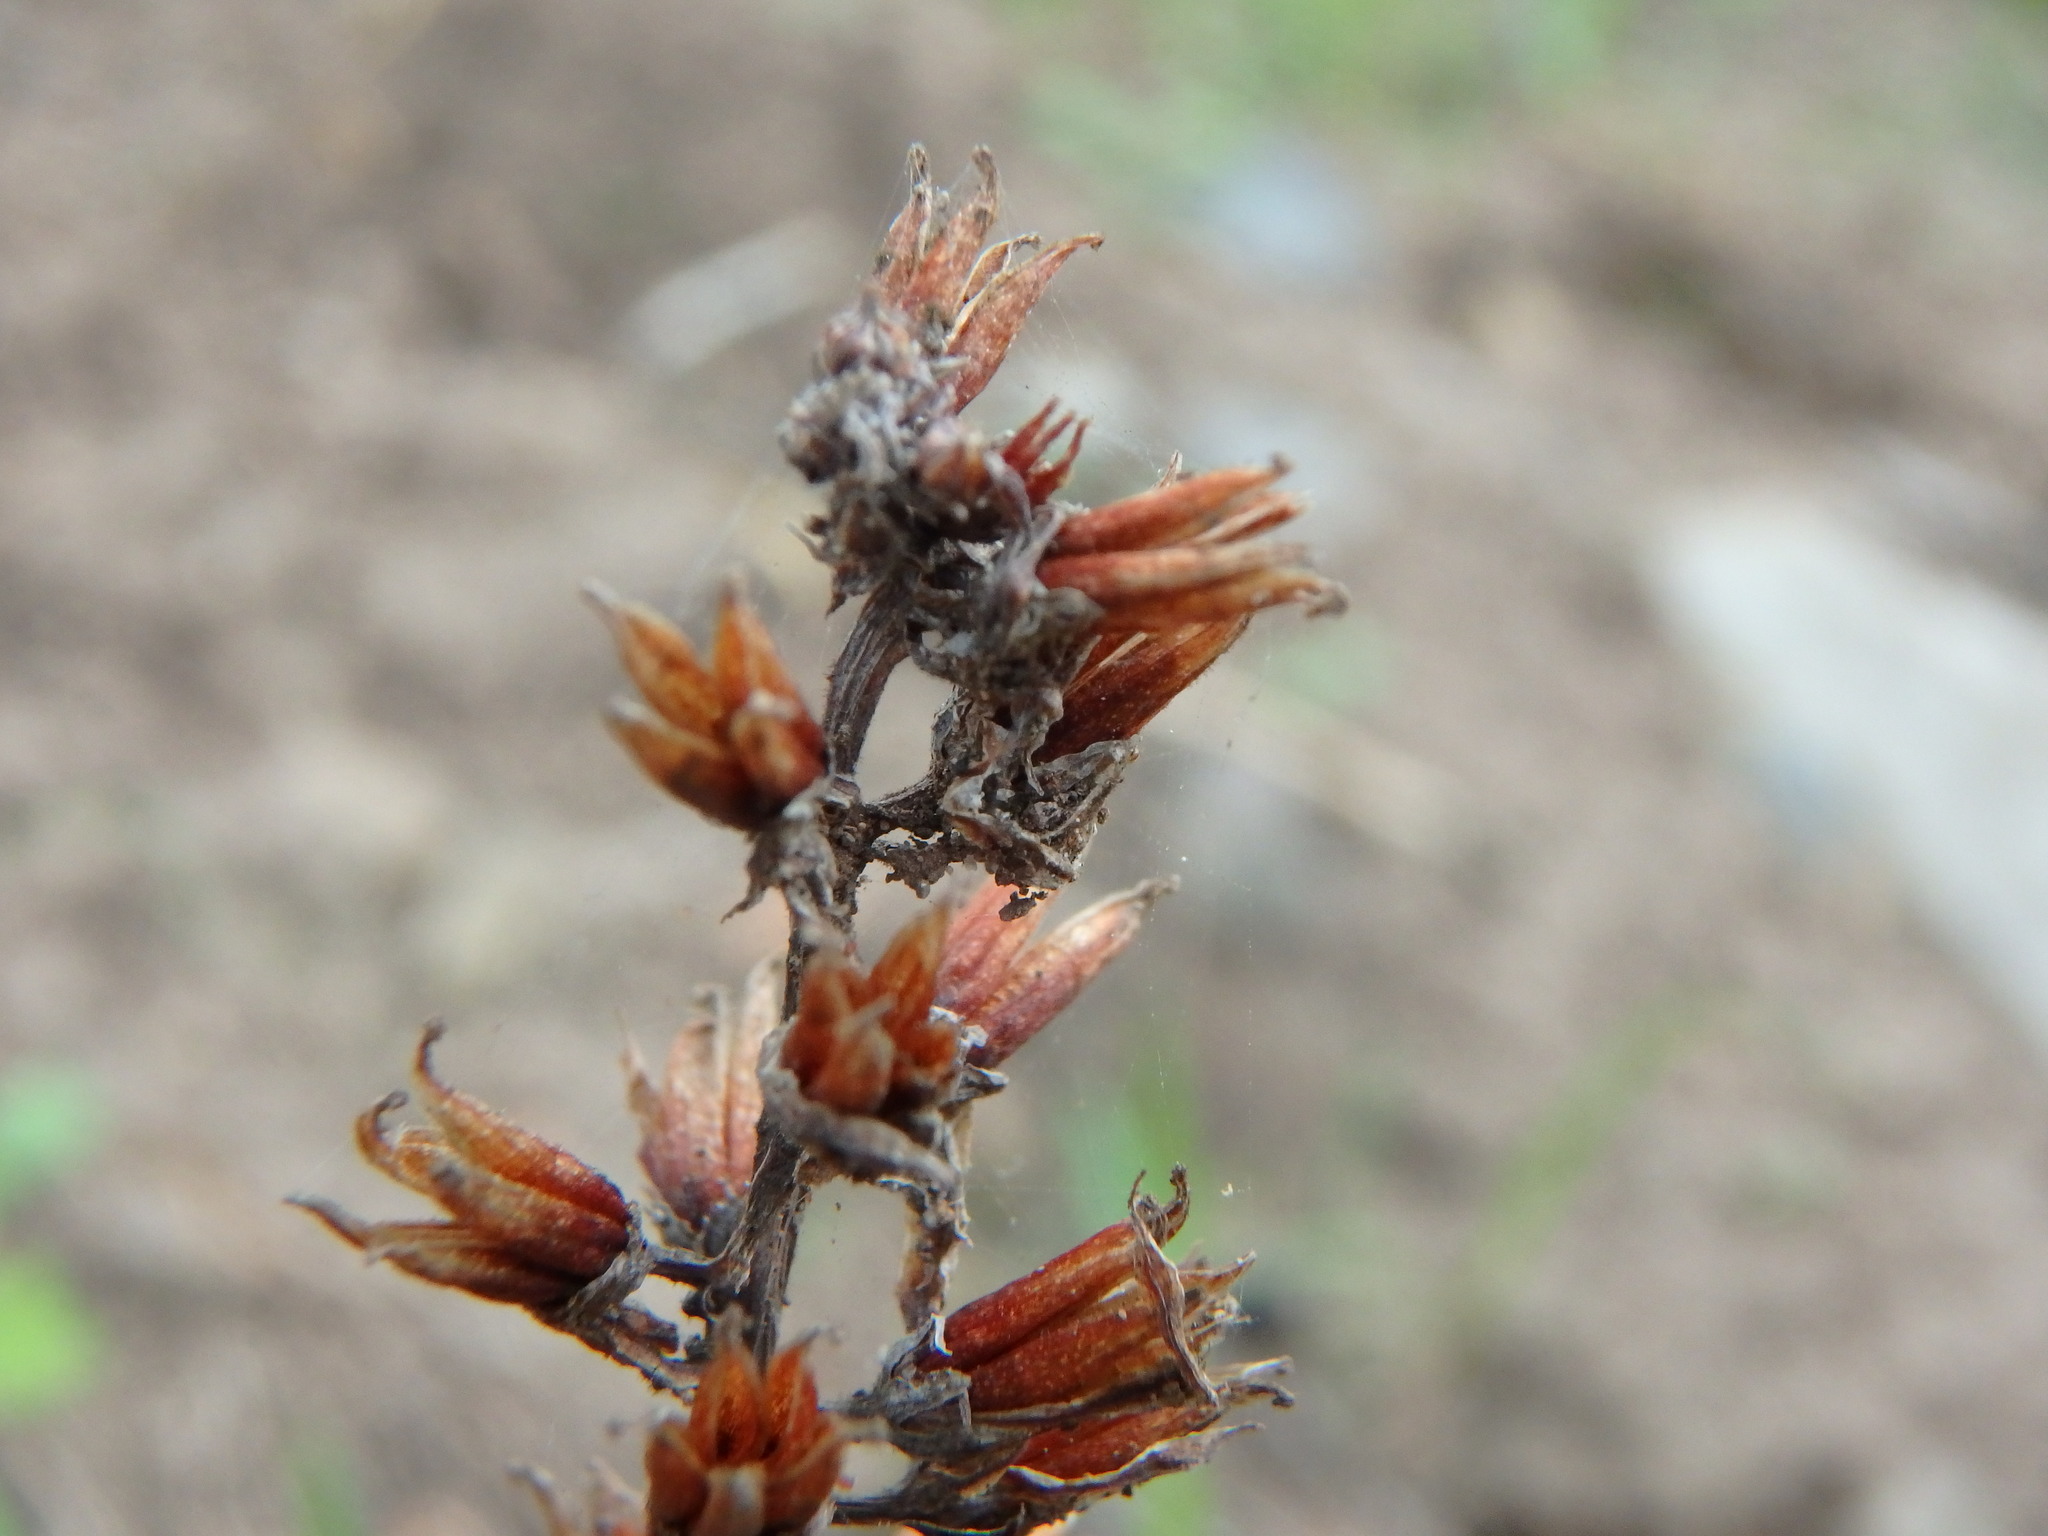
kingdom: Plantae
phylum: Tracheophyta
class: Magnoliopsida
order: Saxifragales
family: Crassulaceae
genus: Umbilicus
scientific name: Umbilicus horizontalis
